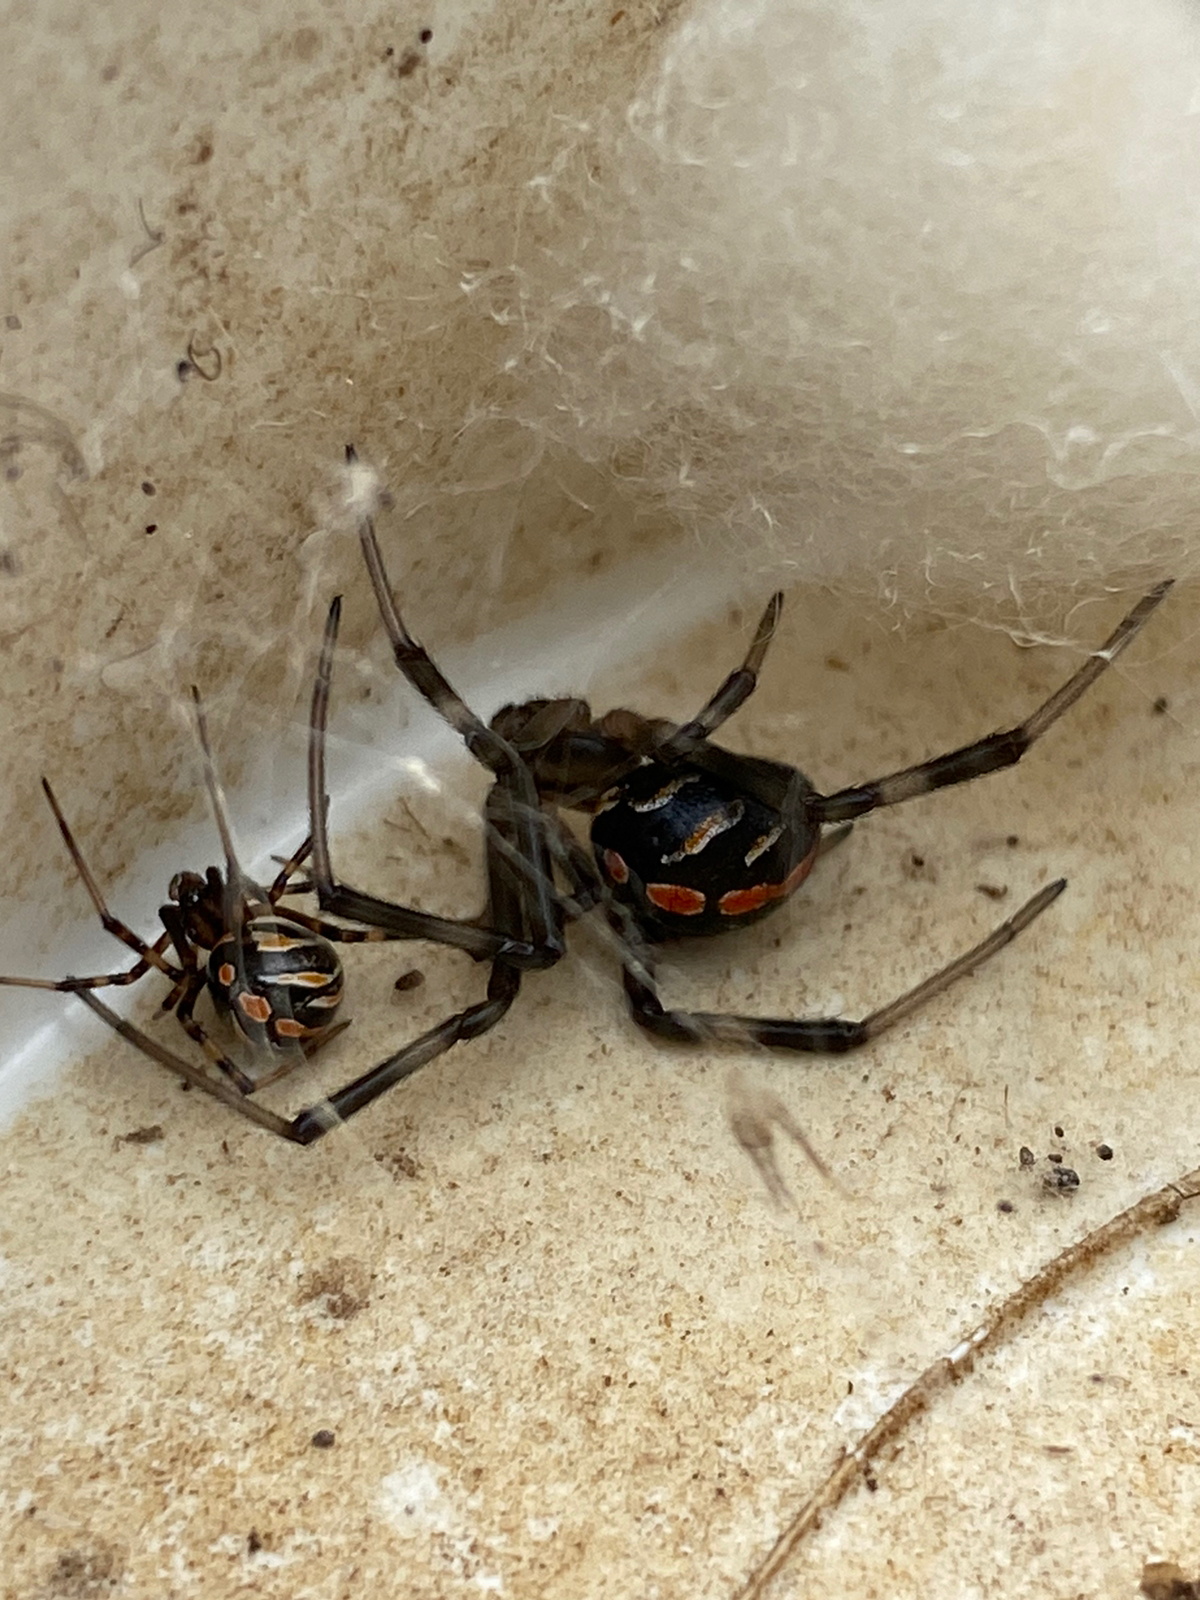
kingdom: Animalia
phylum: Arthropoda
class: Arachnida
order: Araneae
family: Theridiidae
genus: Latrodectus
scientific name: Latrodectus mactans
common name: Cobweb spiders
